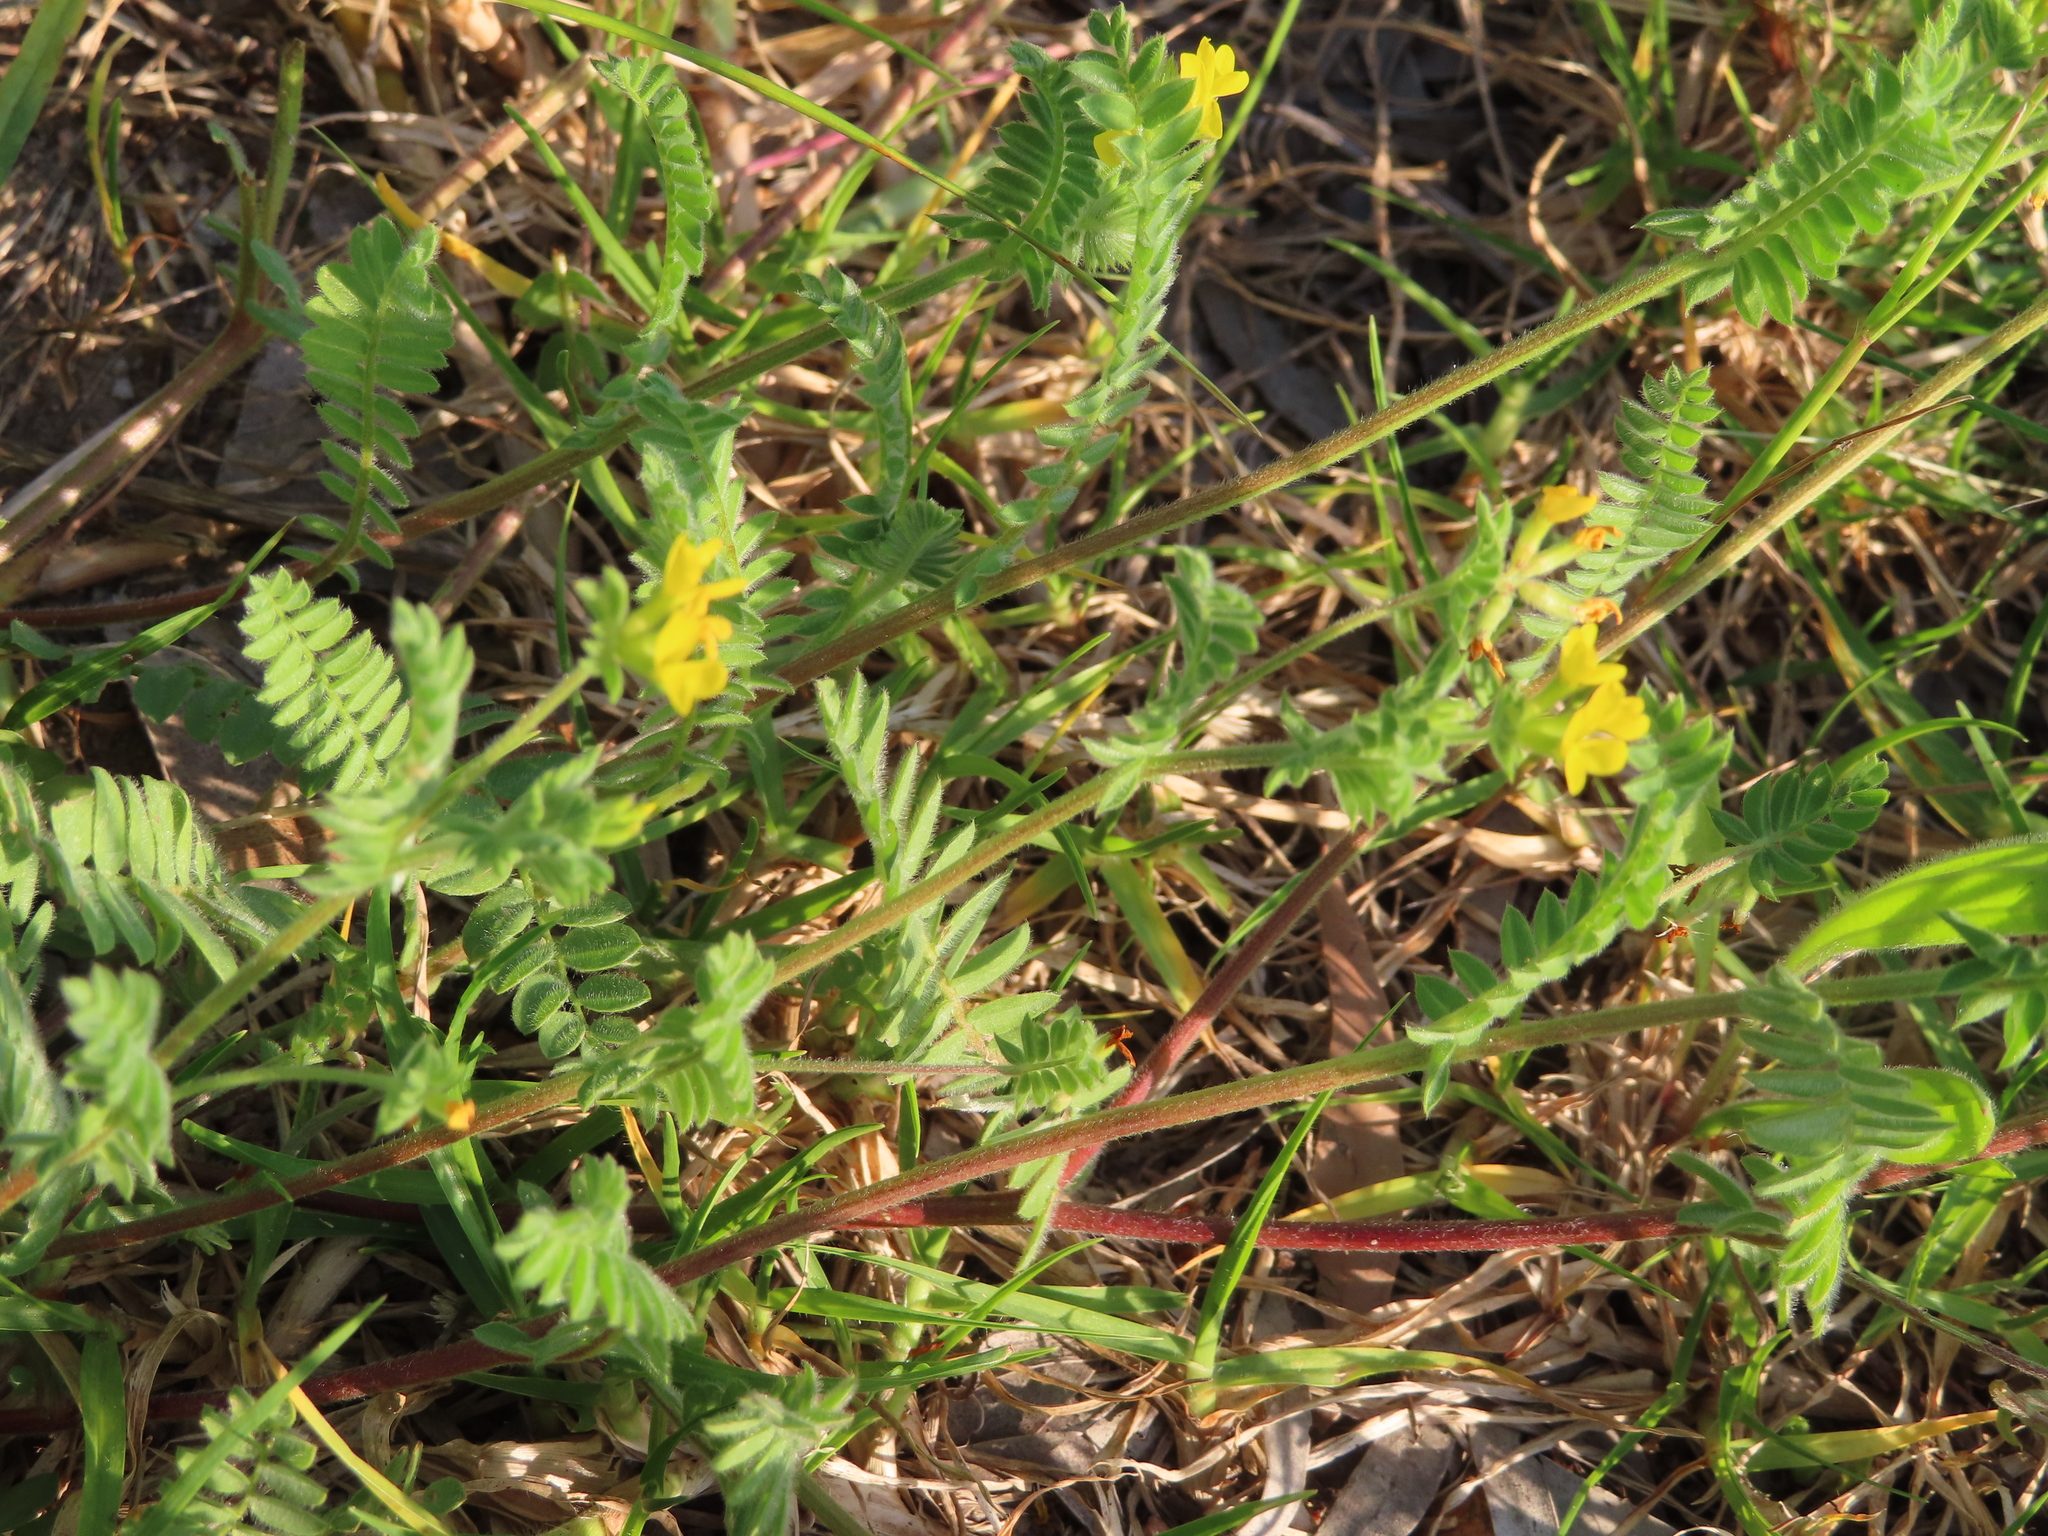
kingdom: Plantae
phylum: Tracheophyta
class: Magnoliopsida
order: Fabales
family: Fabaceae
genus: Ornithopus
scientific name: Ornithopus compressus
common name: Yellow serradella
